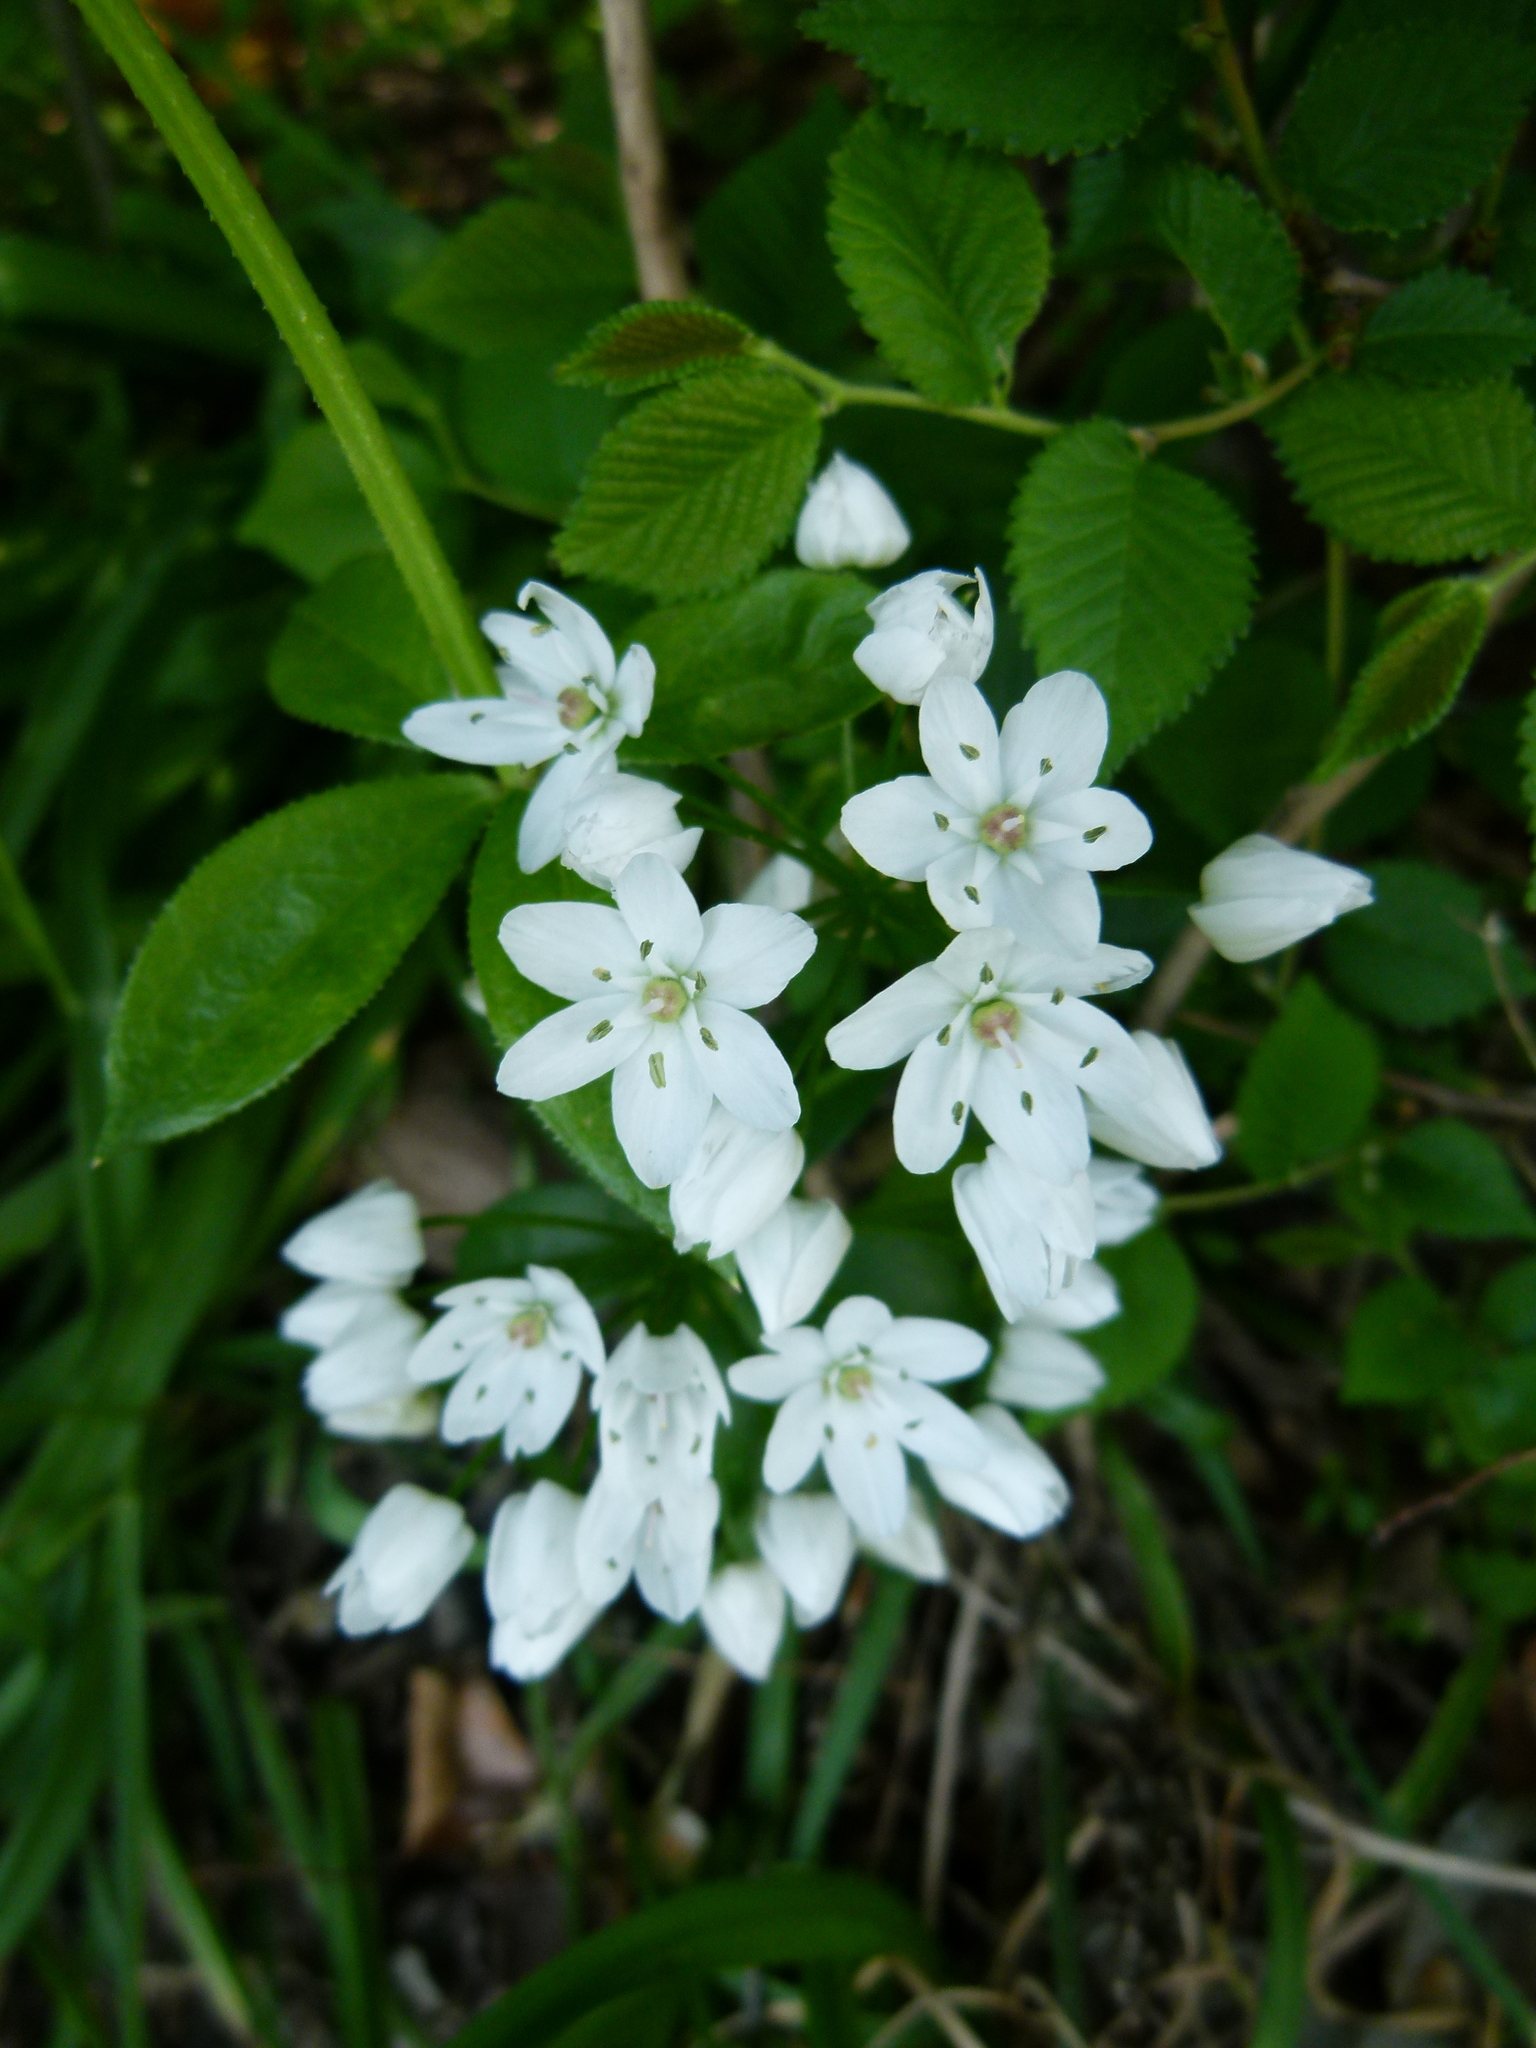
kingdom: Plantae
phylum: Tracheophyta
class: Liliopsida
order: Asparagales
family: Amaryllidaceae
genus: Allium
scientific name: Allium neapolitanum
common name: Neapolitan garlic
